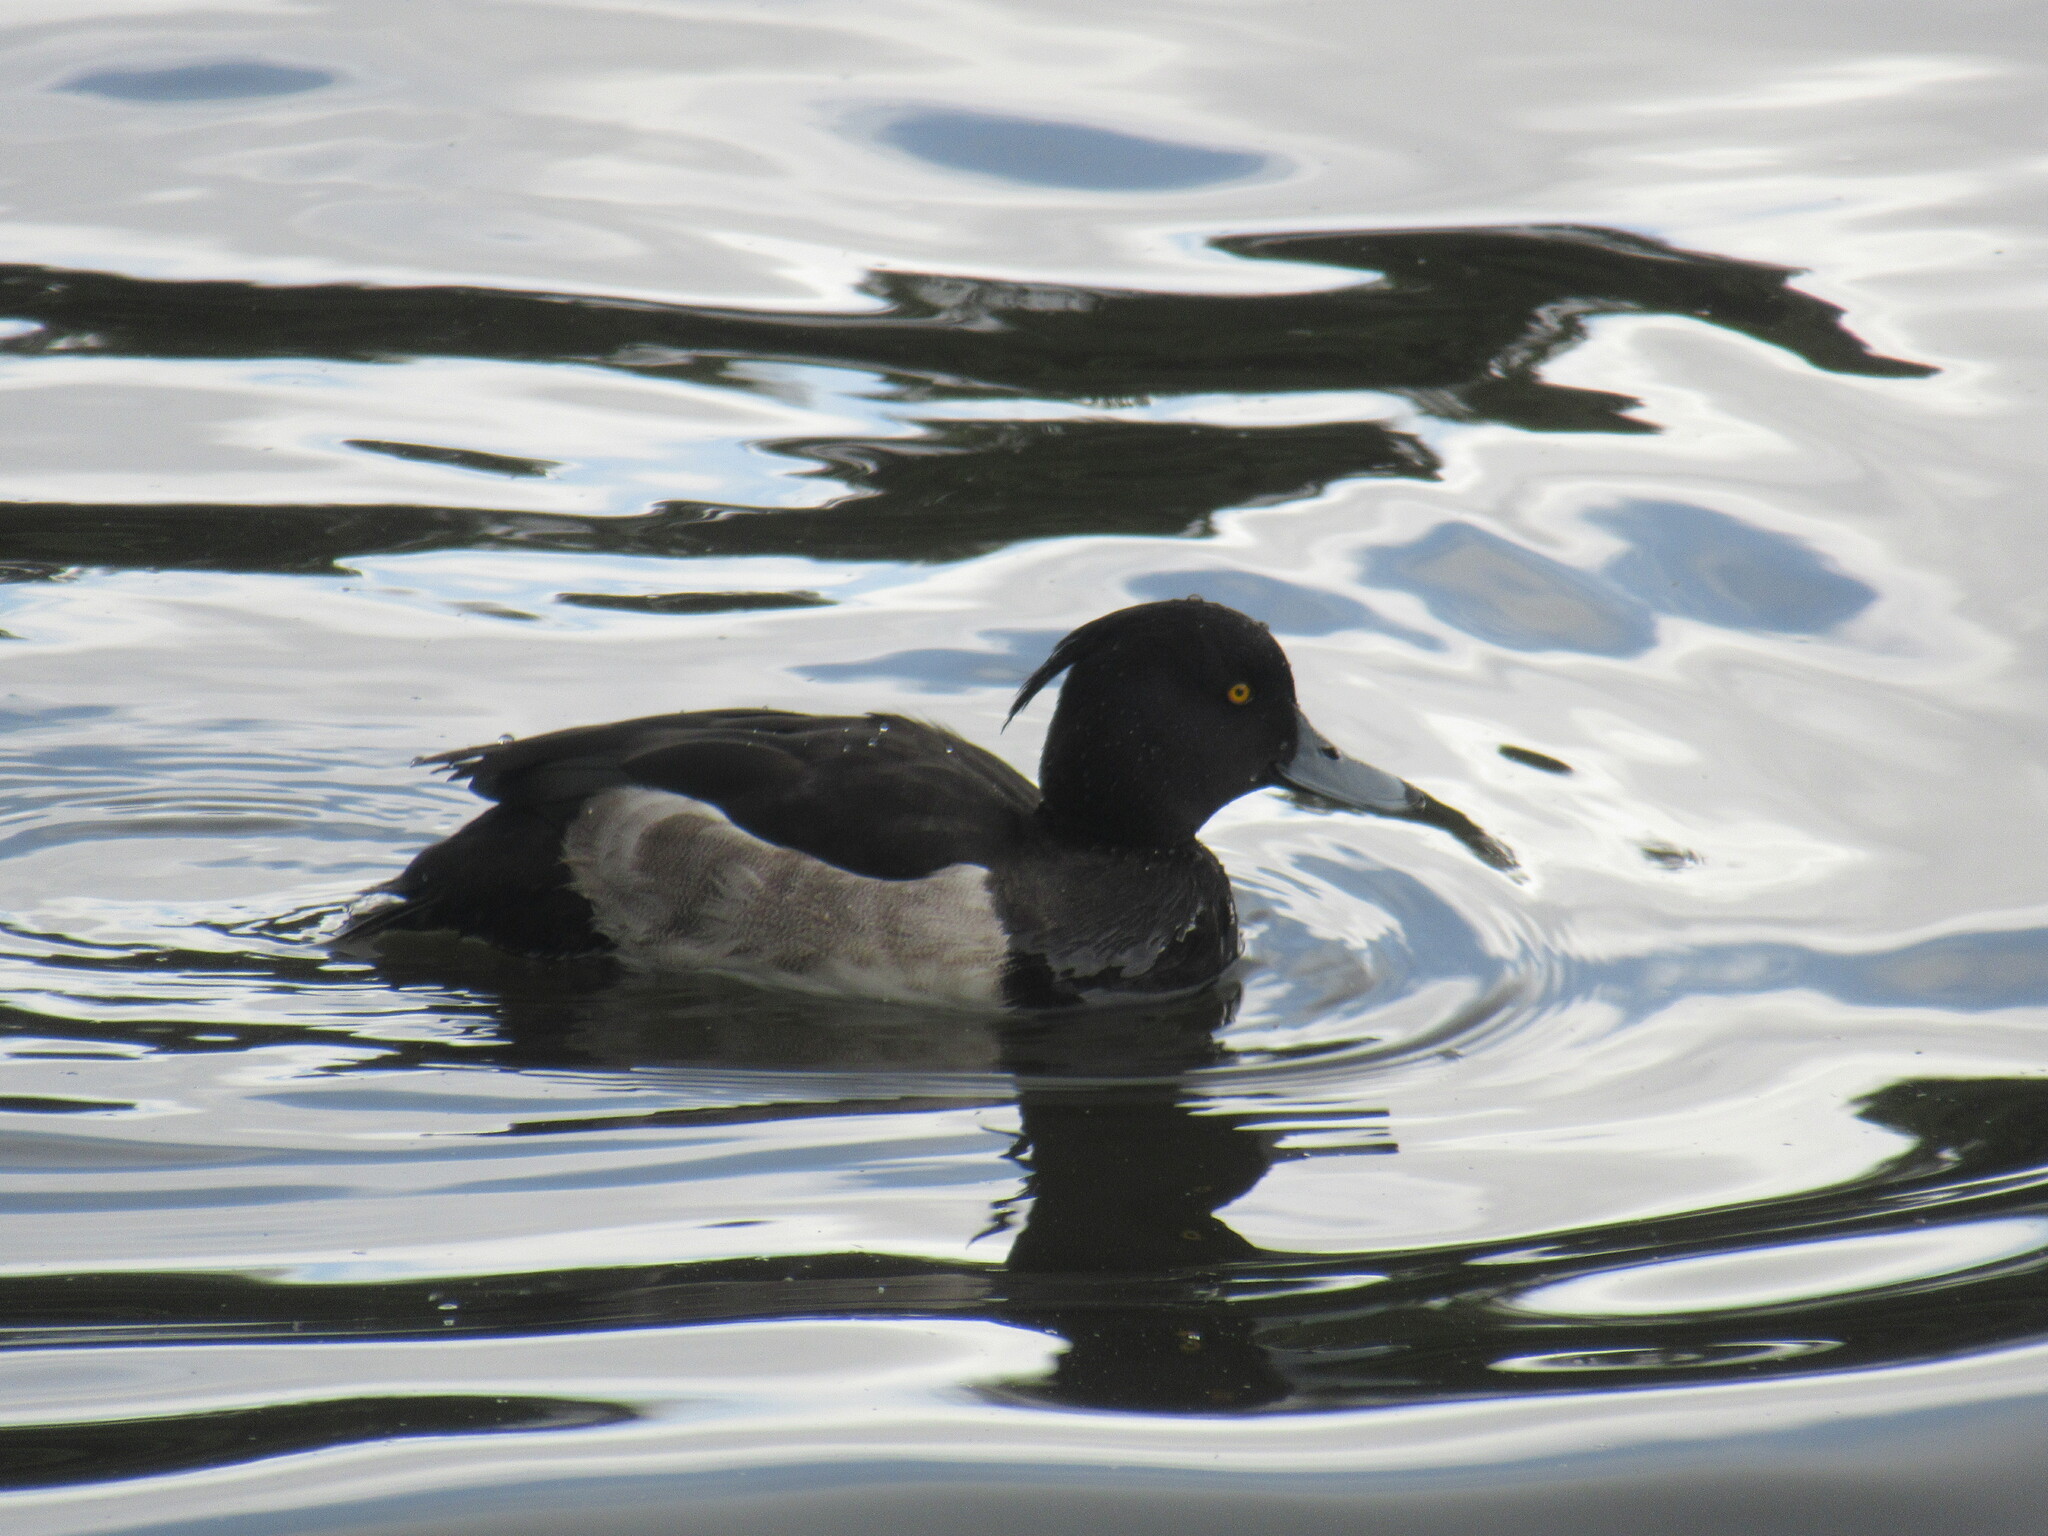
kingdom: Animalia
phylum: Chordata
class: Aves
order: Anseriformes
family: Anatidae
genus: Aythya
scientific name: Aythya fuligula
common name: Tufted duck
